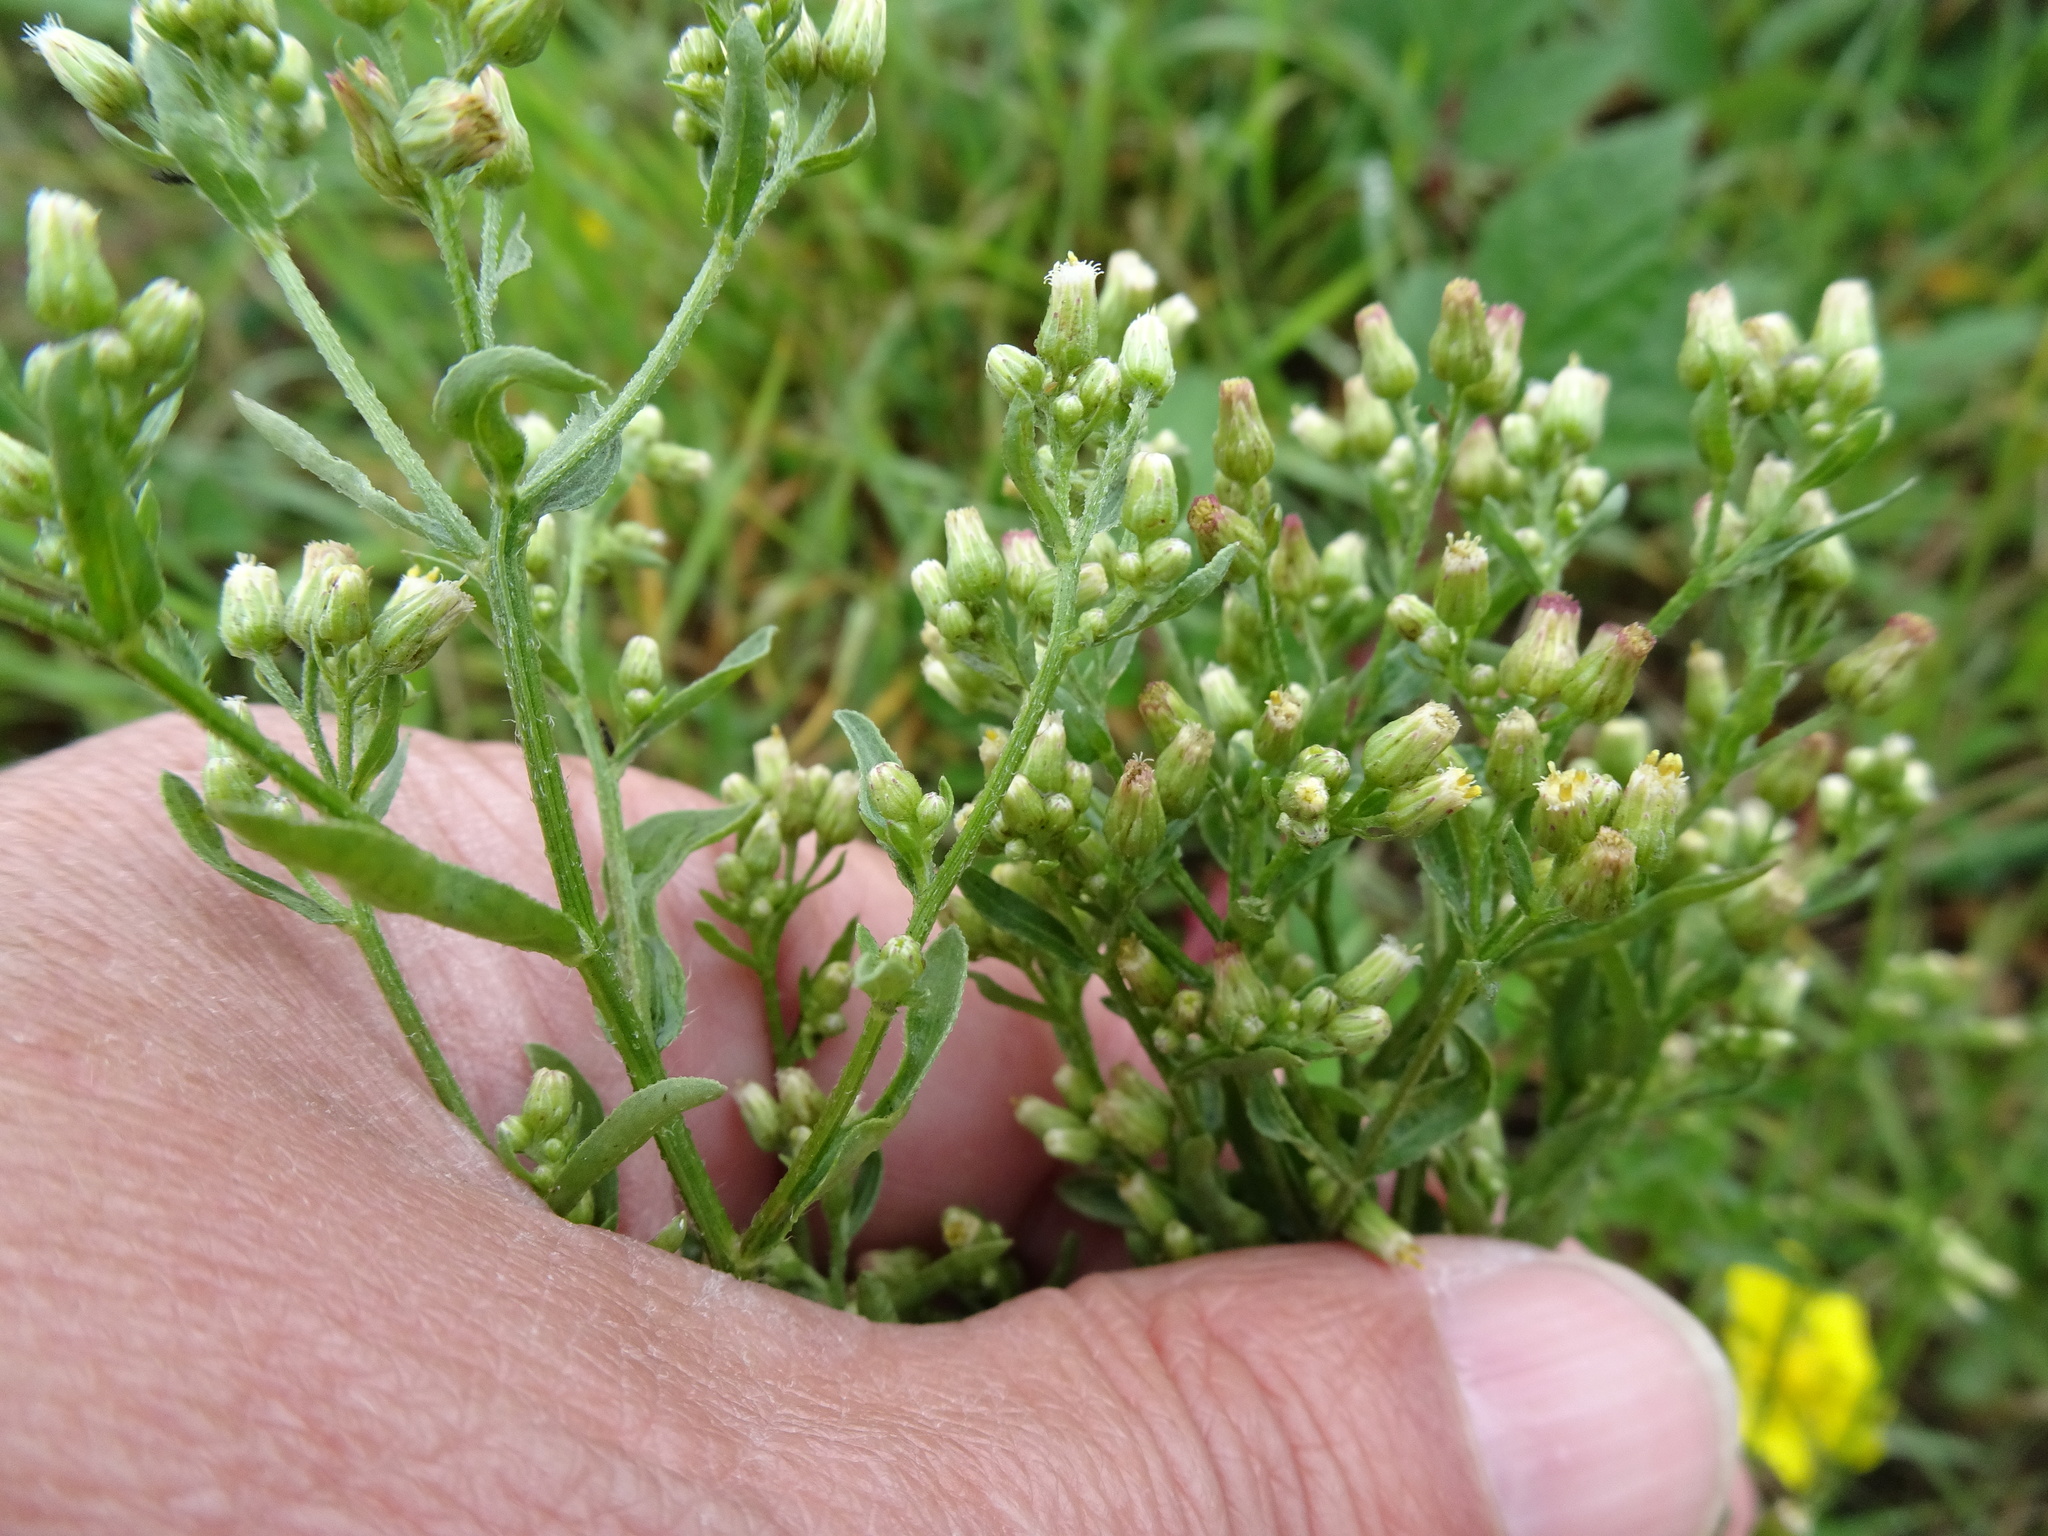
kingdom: Plantae
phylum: Tracheophyta
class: Magnoliopsida
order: Asterales
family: Asteraceae
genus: Erigeron
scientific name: Erigeron floribundus
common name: Bilbao fleabane
